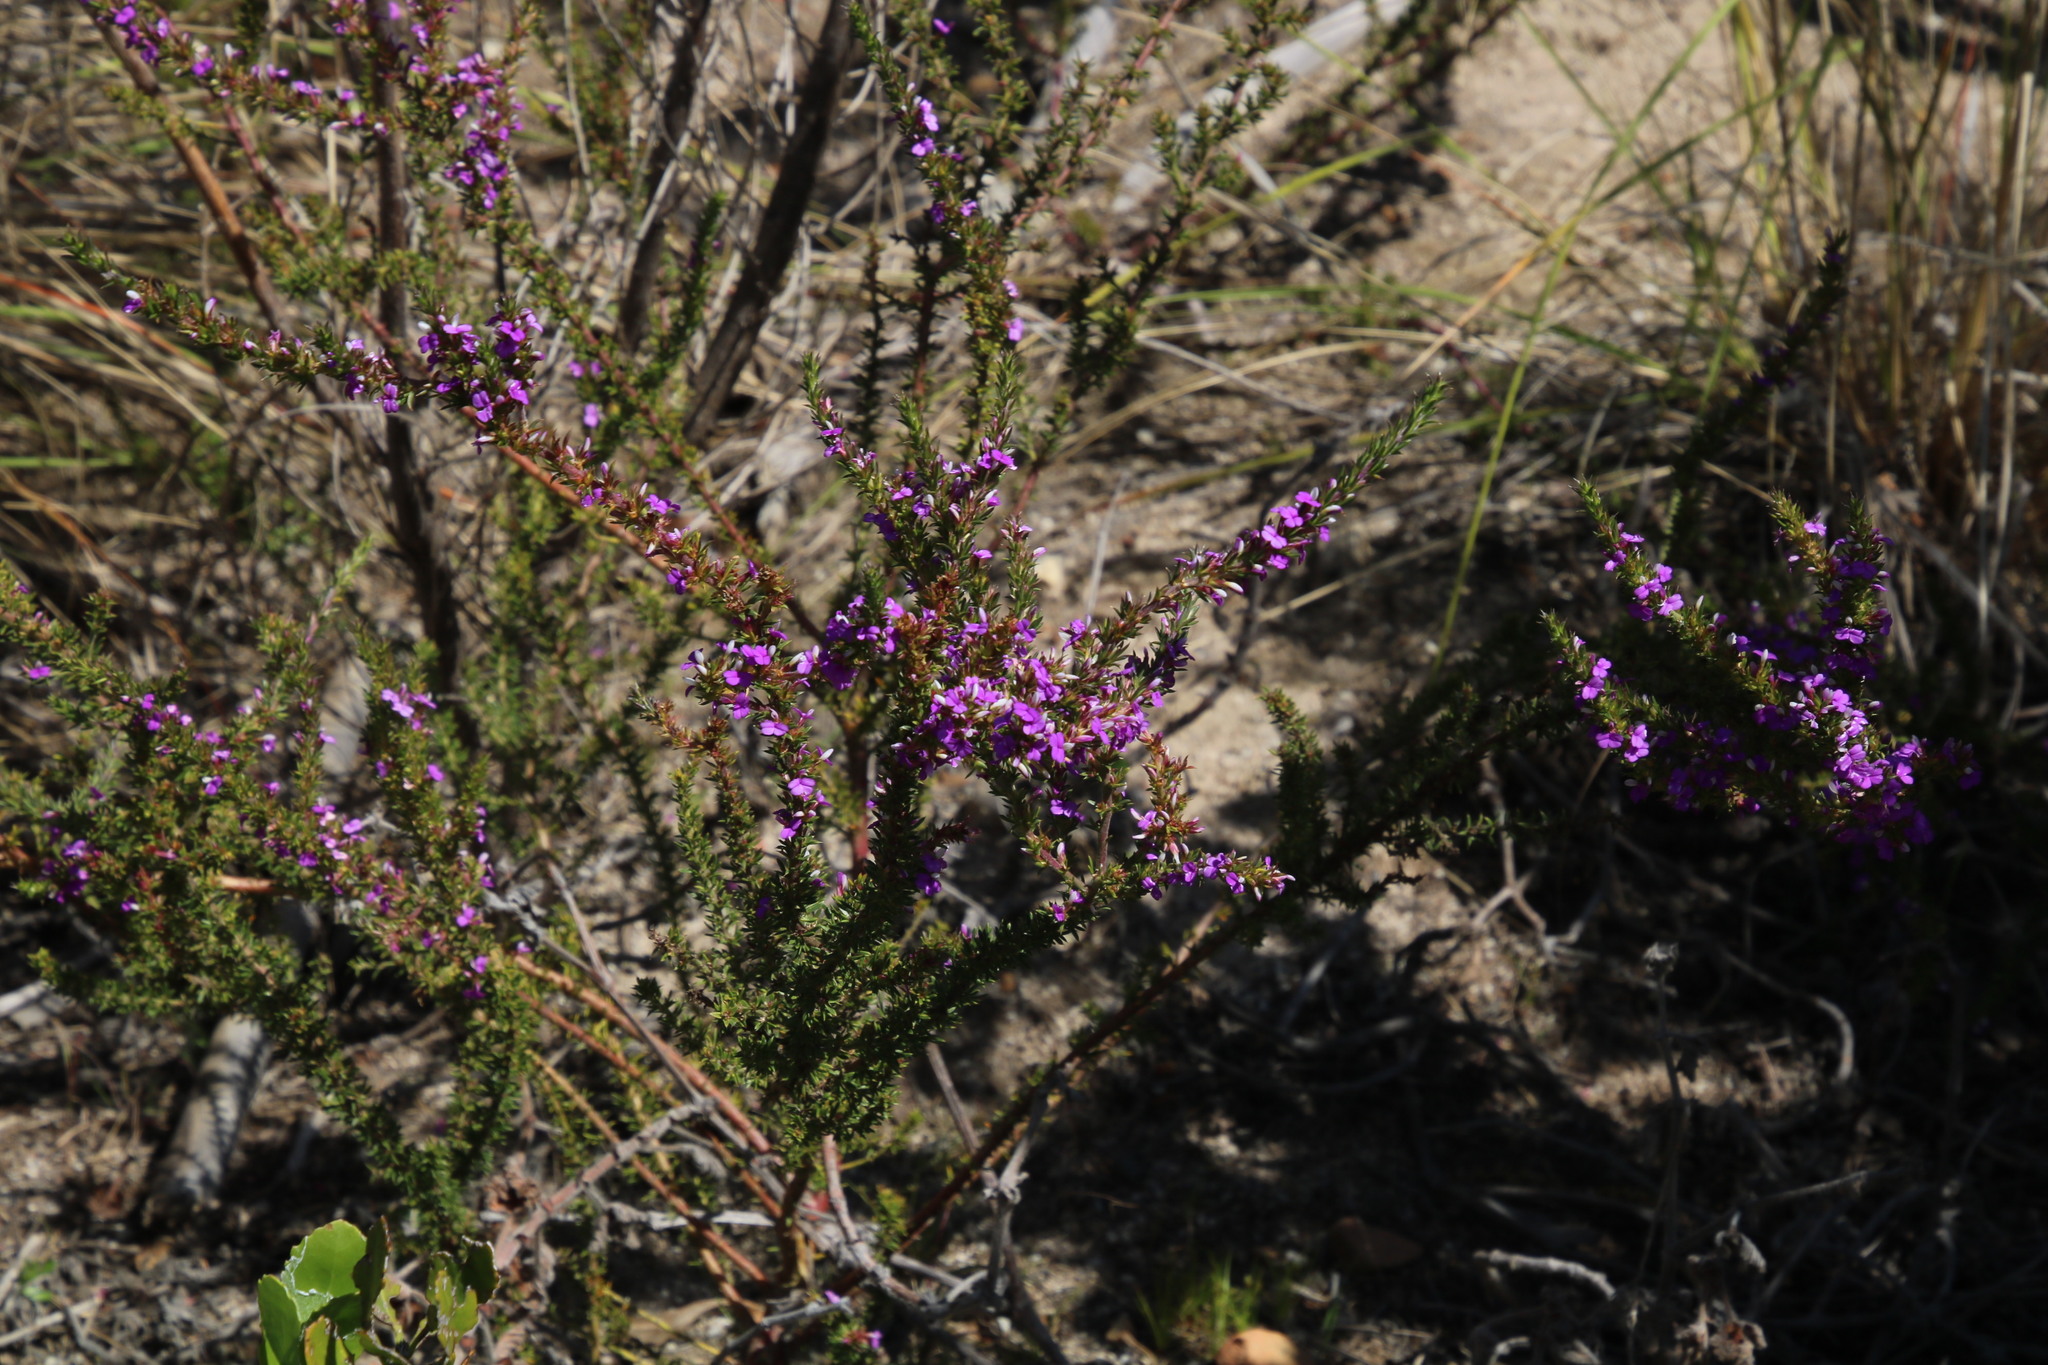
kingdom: Plantae
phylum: Tracheophyta
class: Magnoliopsida
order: Fabales
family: Polygalaceae
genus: Muraltia
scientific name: Muraltia heisteria
